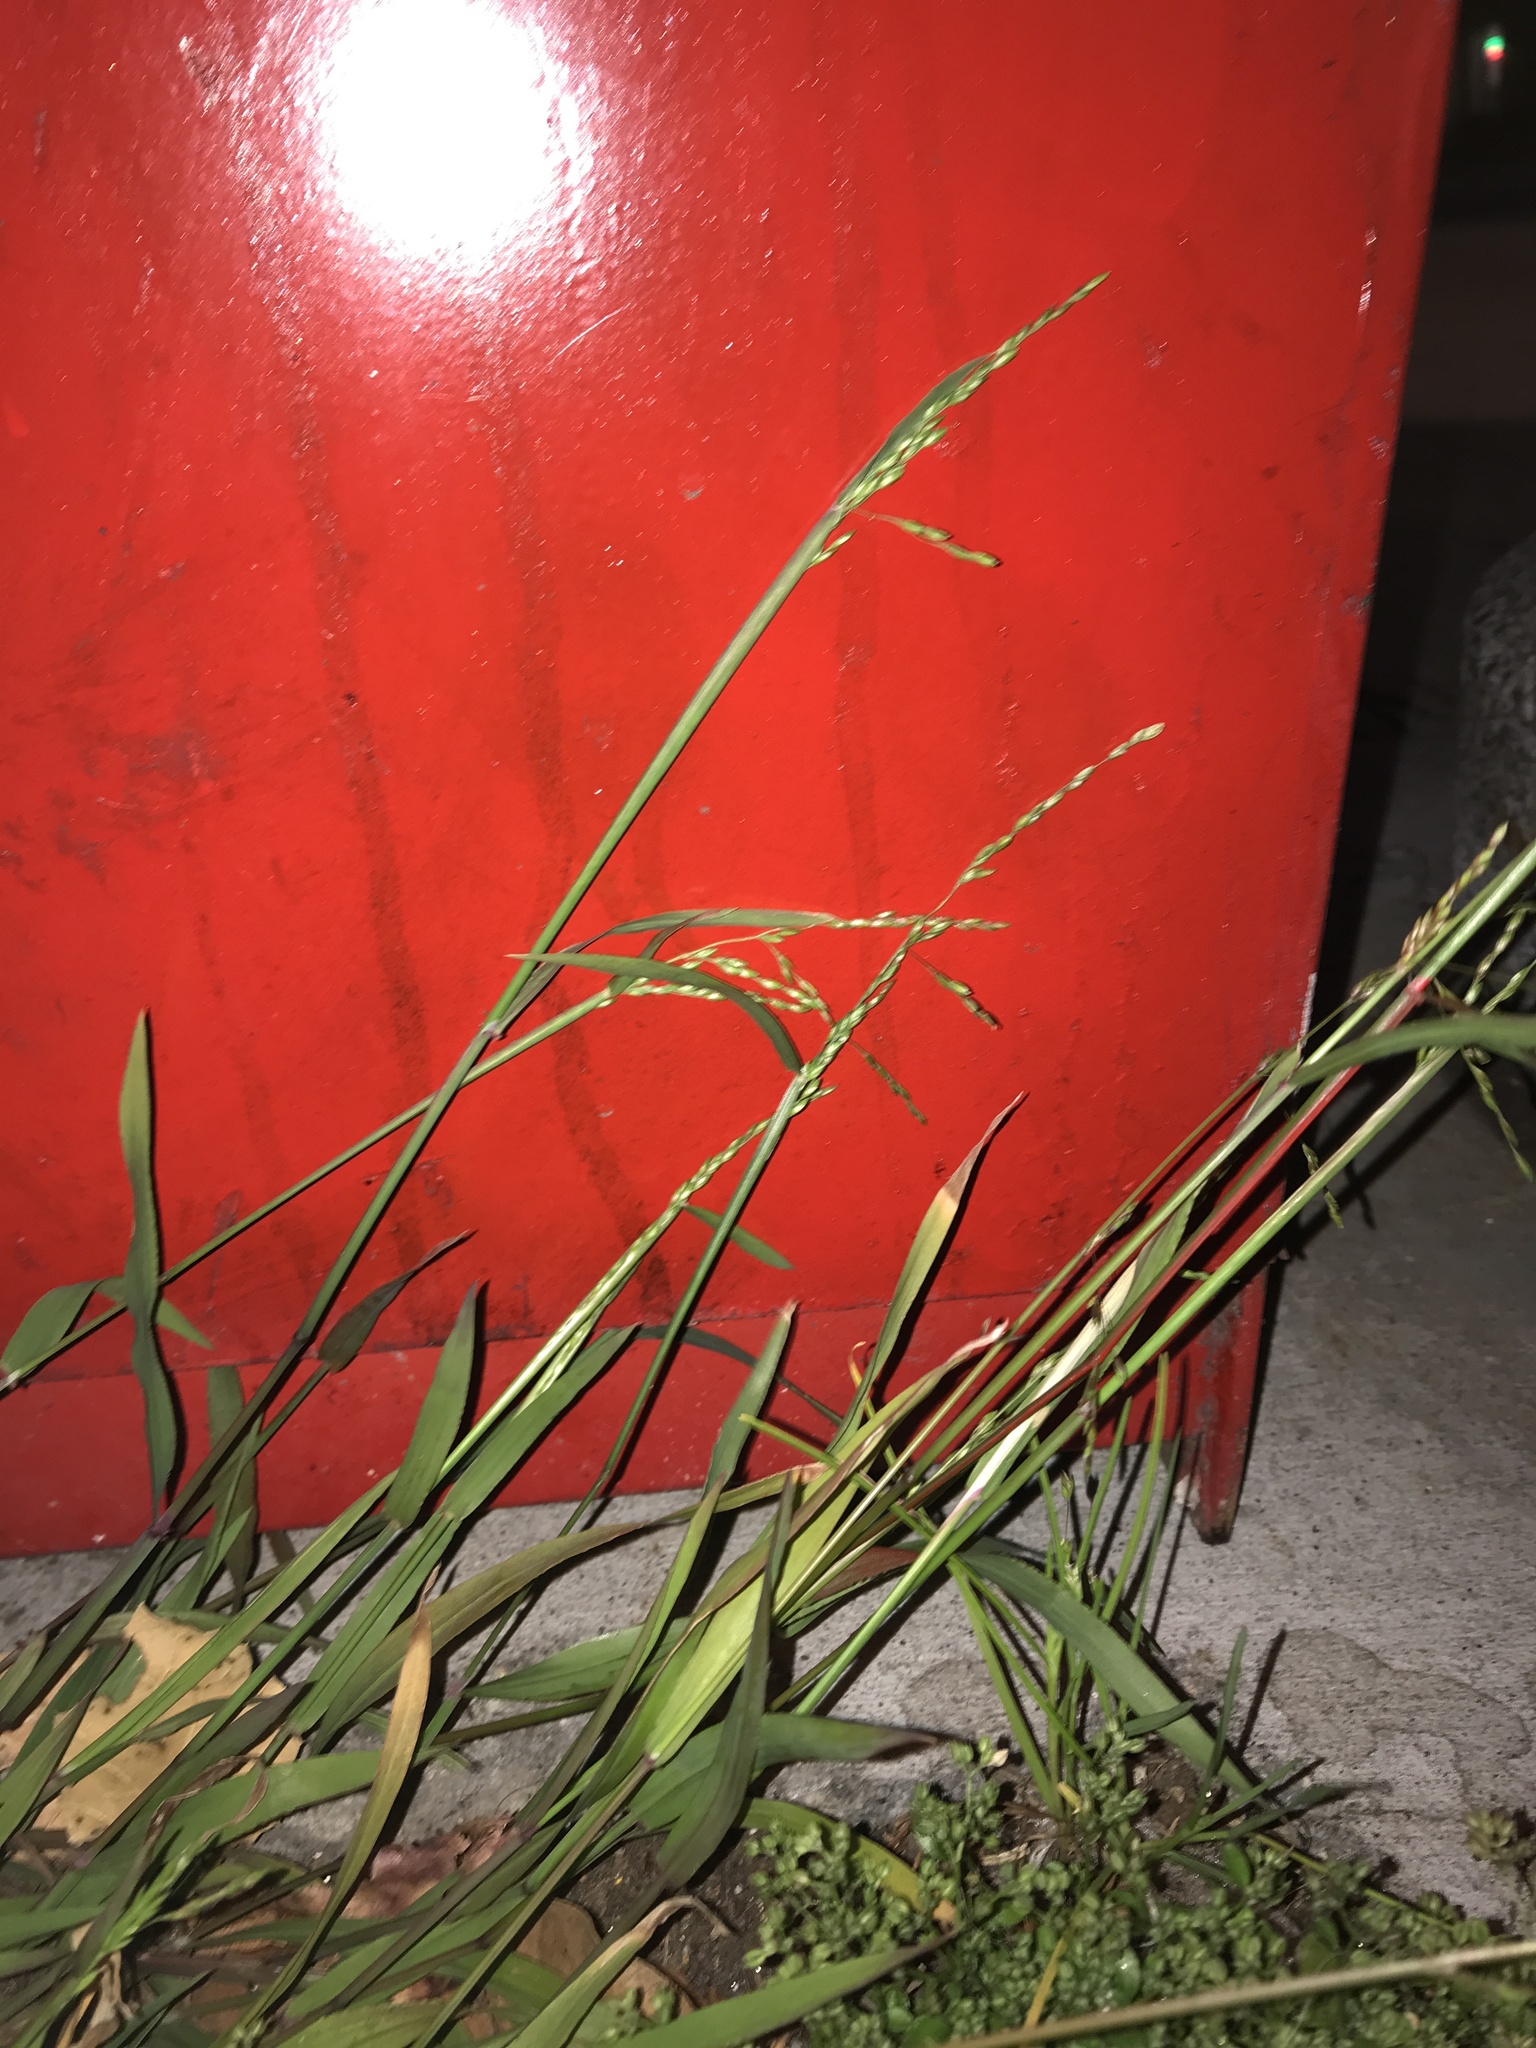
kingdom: Plantae
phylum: Tracheophyta
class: Liliopsida
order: Poales
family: Poaceae
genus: Ehrharta
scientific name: Ehrharta erecta
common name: Panic veldtgrass
